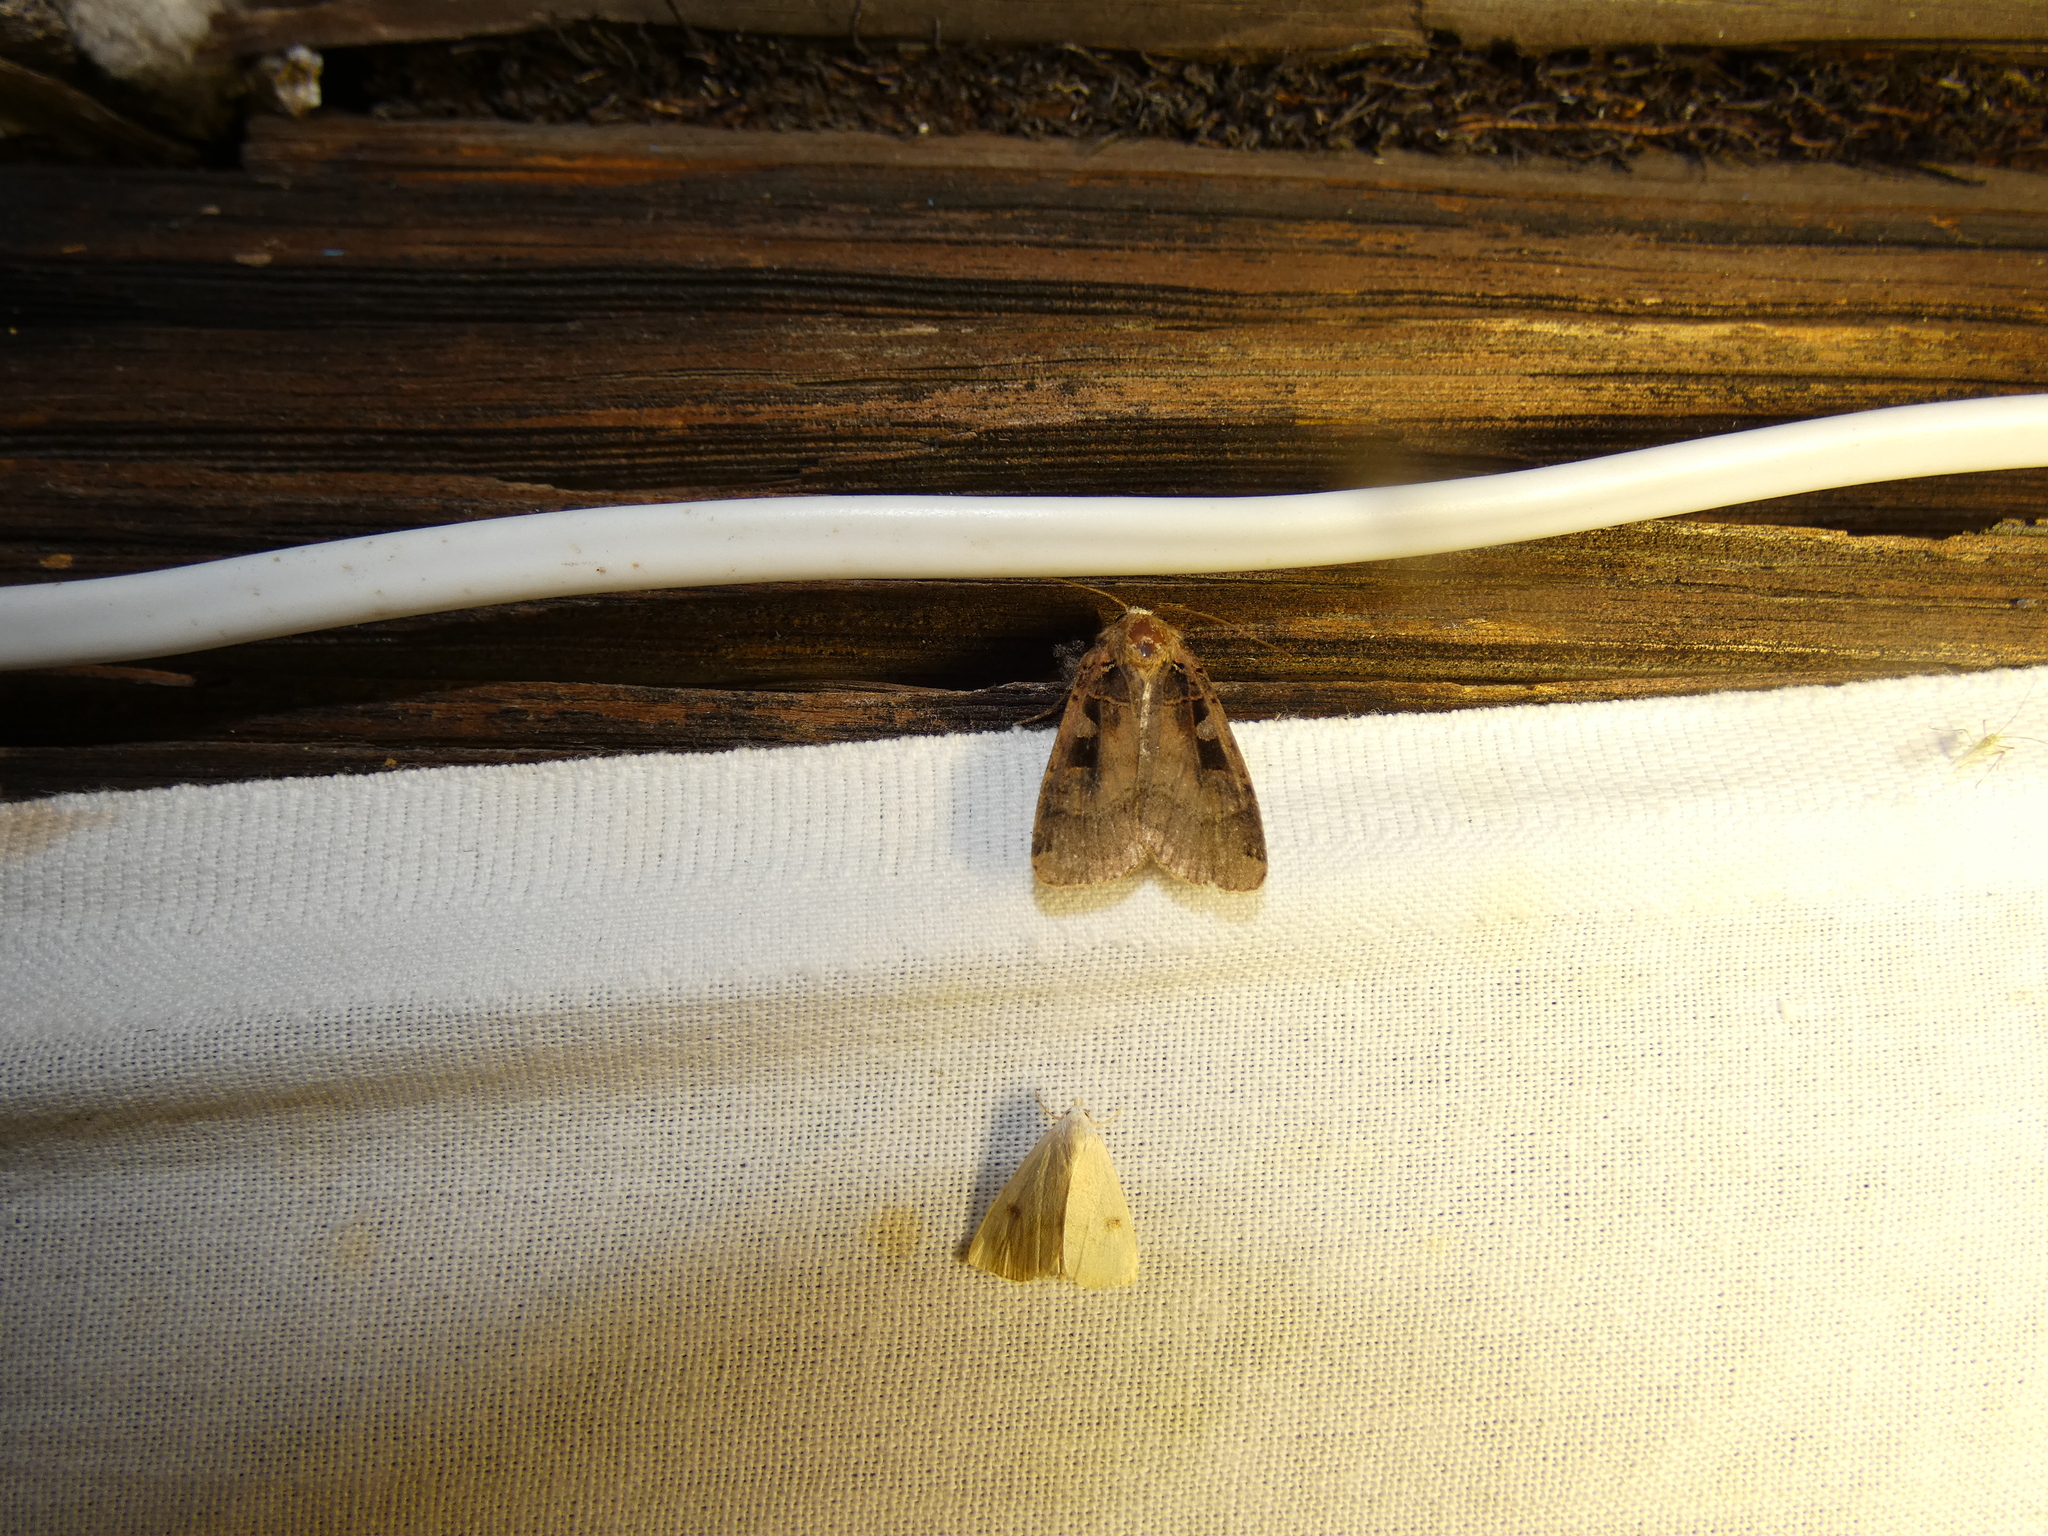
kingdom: Animalia
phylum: Arthropoda
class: Insecta
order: Lepidoptera
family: Noctuidae
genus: Xestia
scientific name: Xestia ditrapezium
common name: Triple-spotted clay
